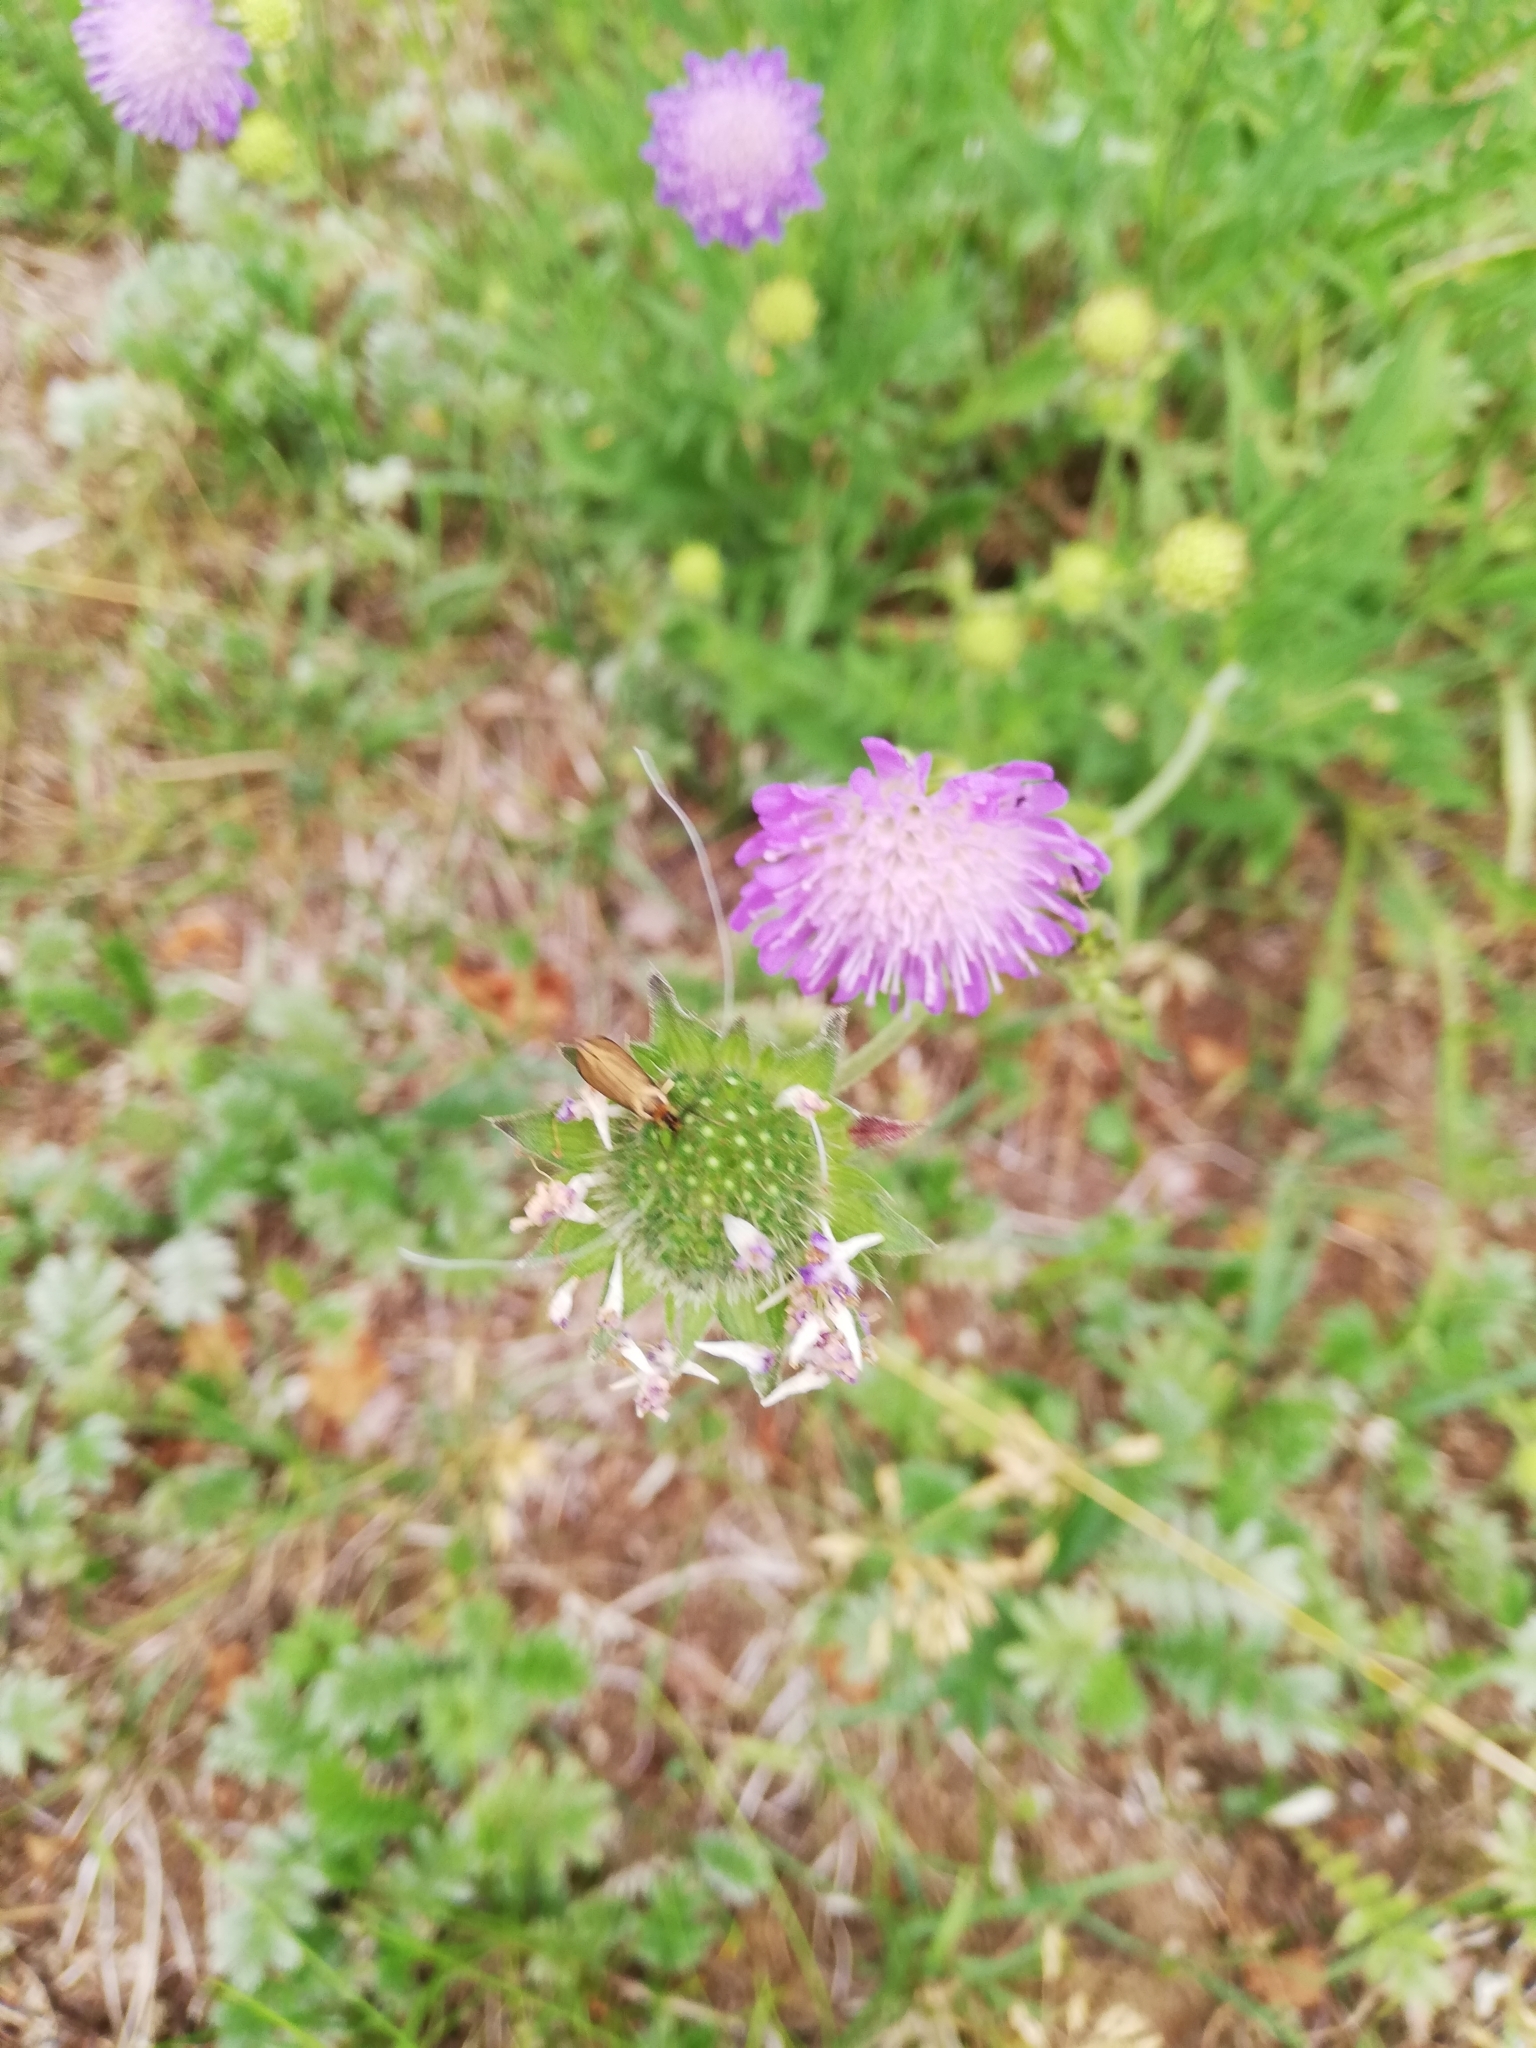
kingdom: Animalia
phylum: Arthropoda
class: Insecta
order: Lepidoptera
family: Adelidae
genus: Nemophora
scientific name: Nemophora metallica
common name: Brassy long-horn
